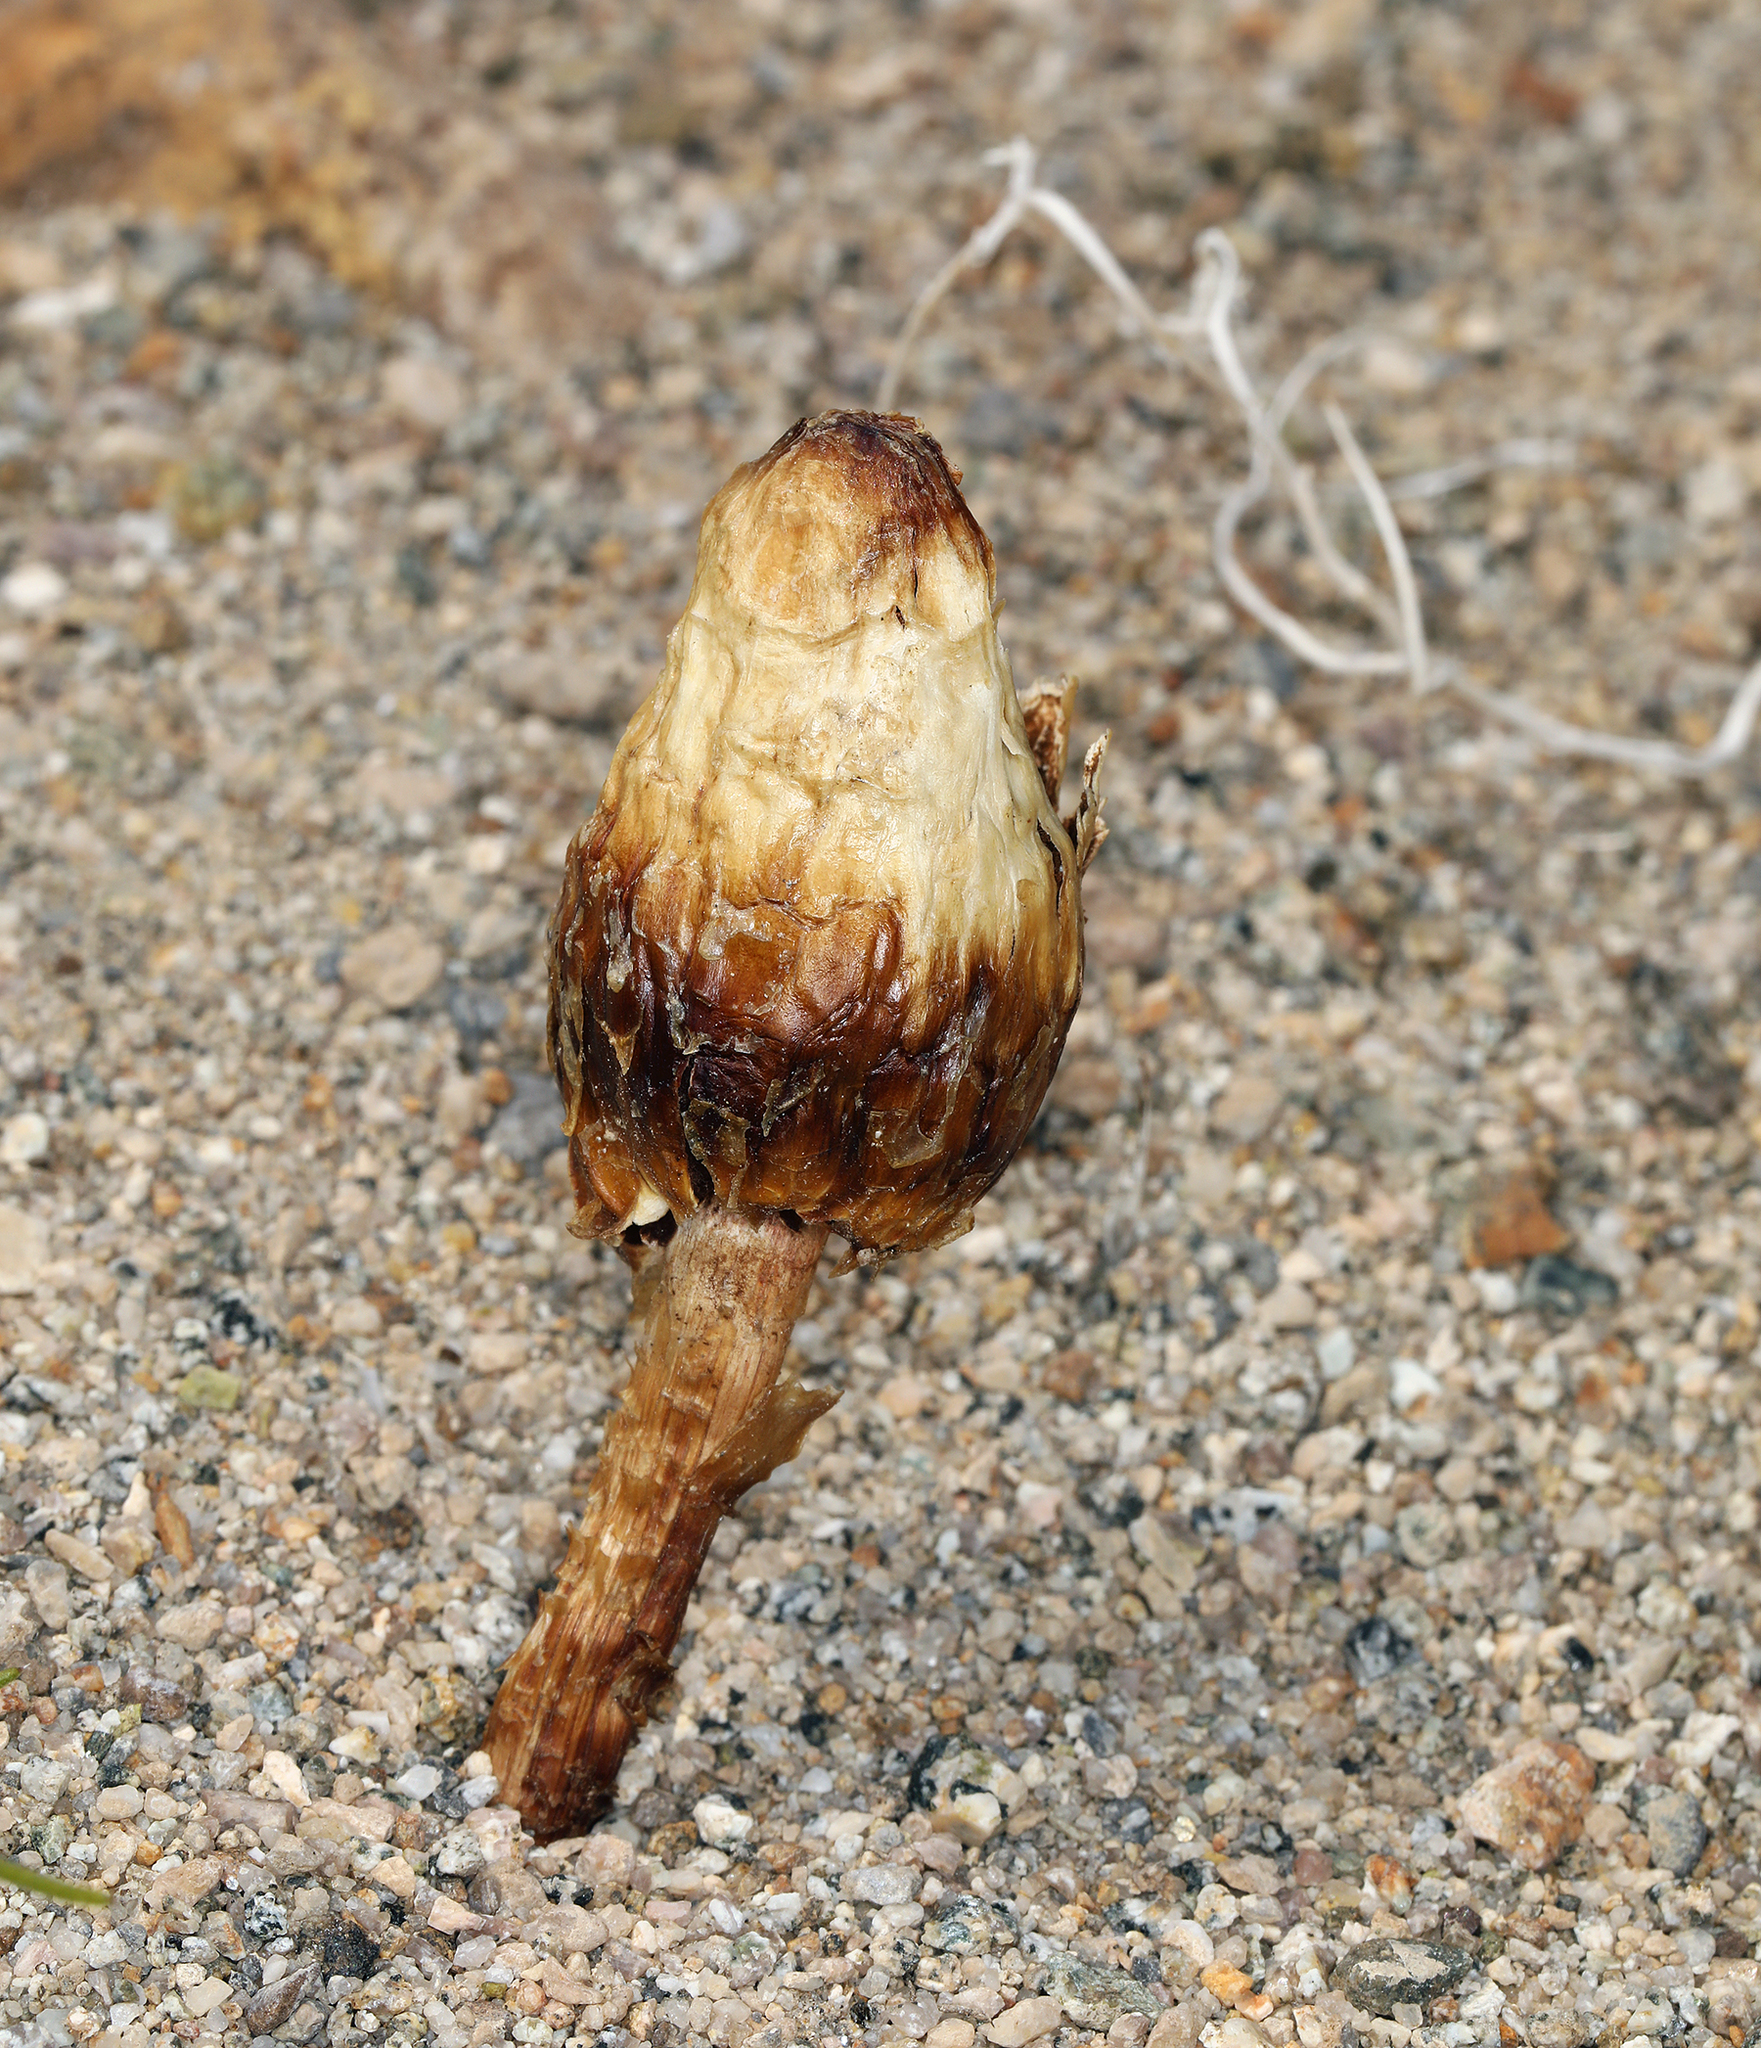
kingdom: Fungi
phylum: Basidiomycota
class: Agaricomycetes
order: Agaricales
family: Agaricaceae
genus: Podaxis
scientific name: Podaxis pistillaris
